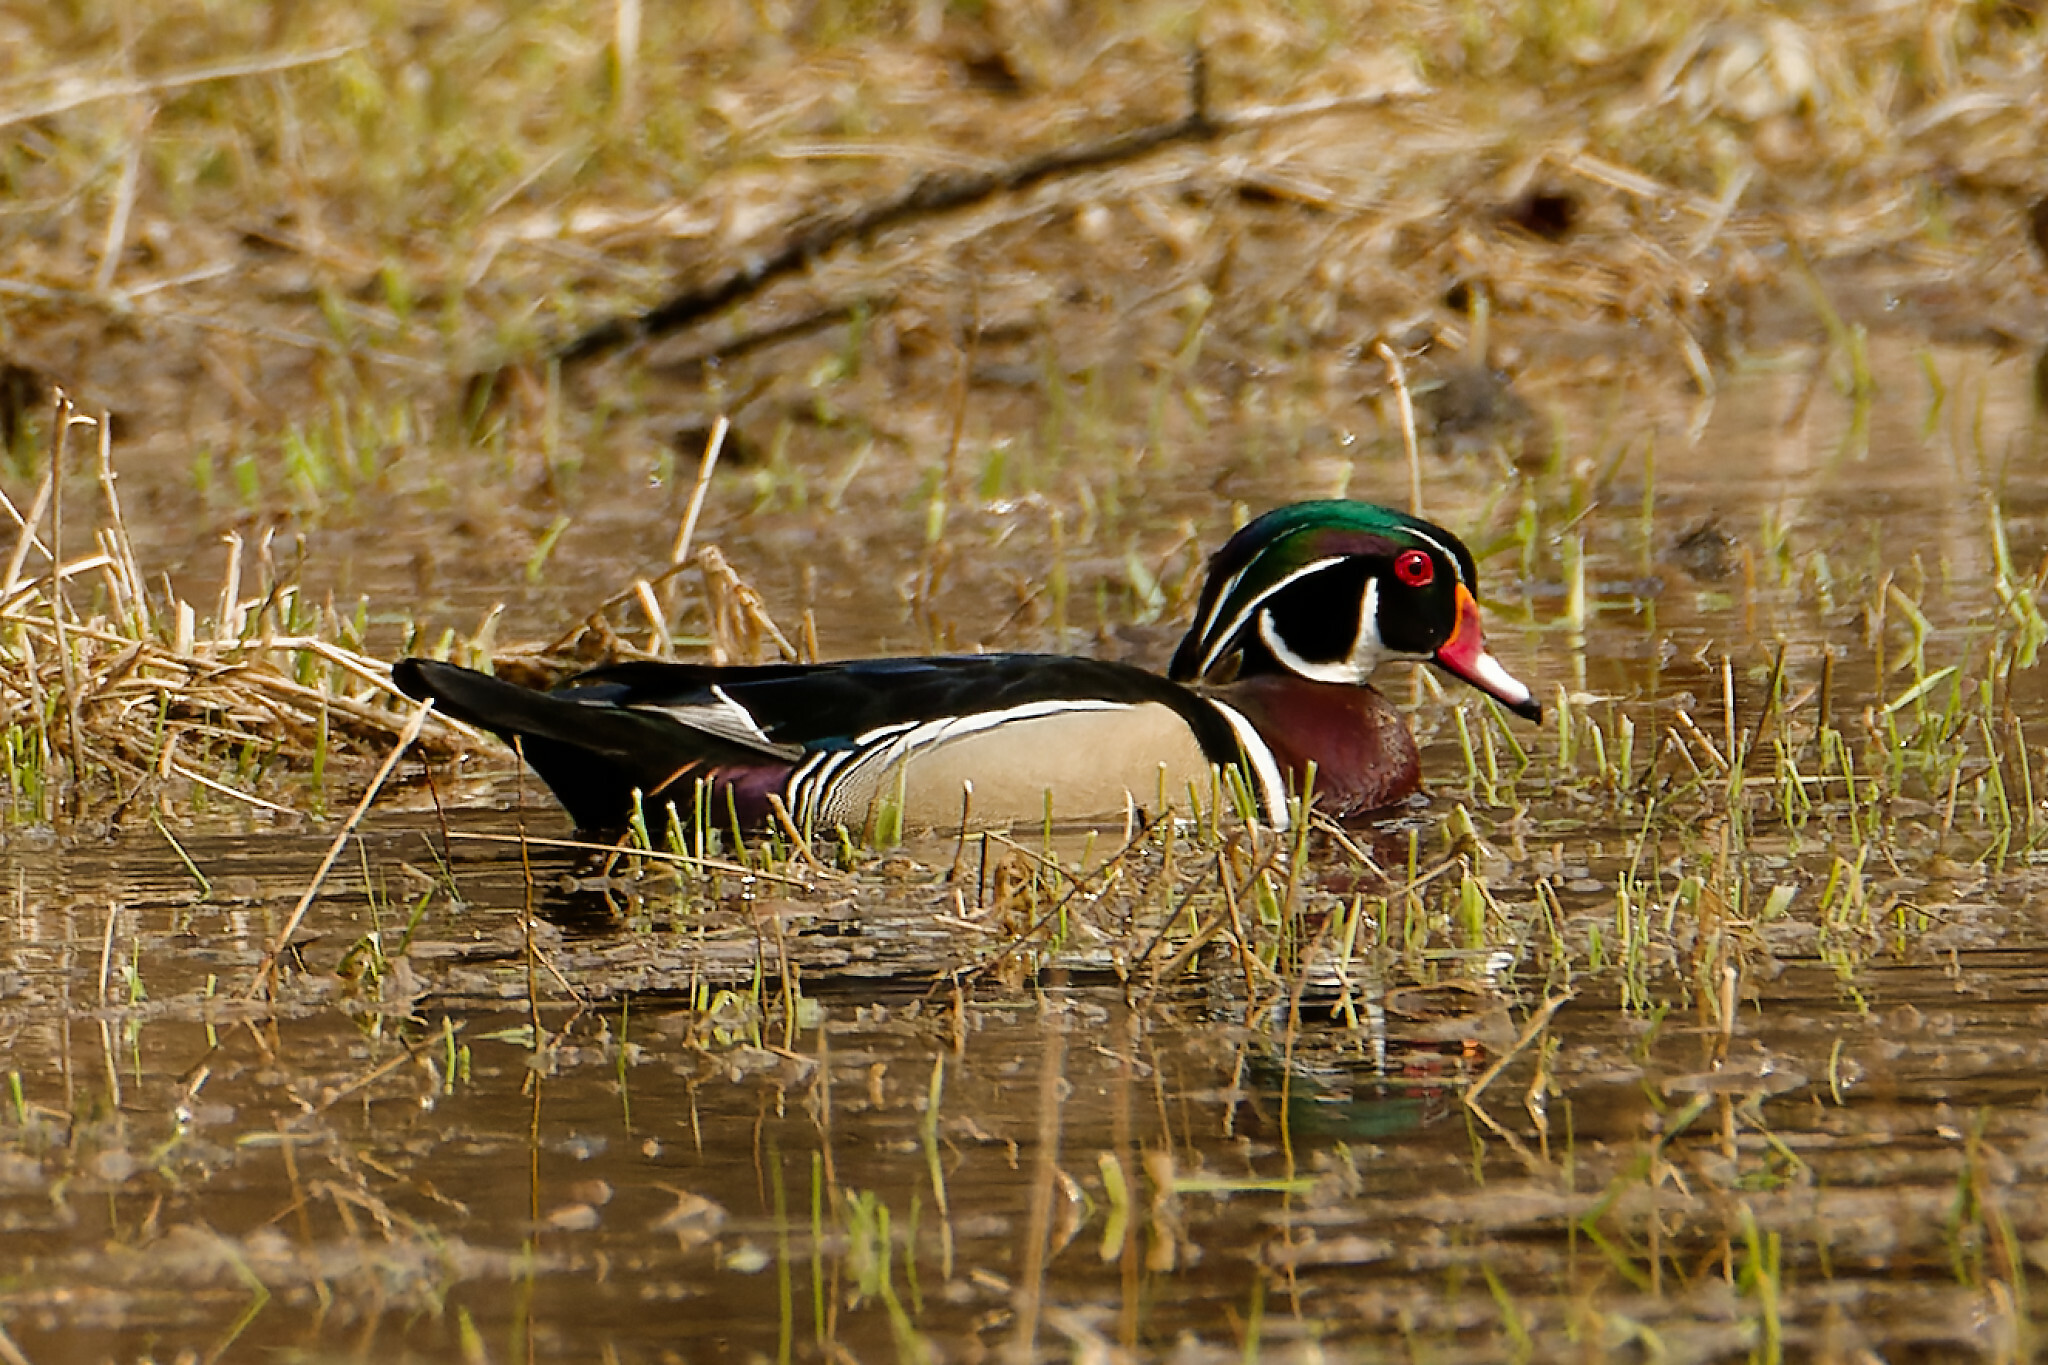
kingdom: Animalia
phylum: Chordata
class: Aves
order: Anseriformes
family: Anatidae
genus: Aix
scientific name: Aix sponsa
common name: Wood duck
